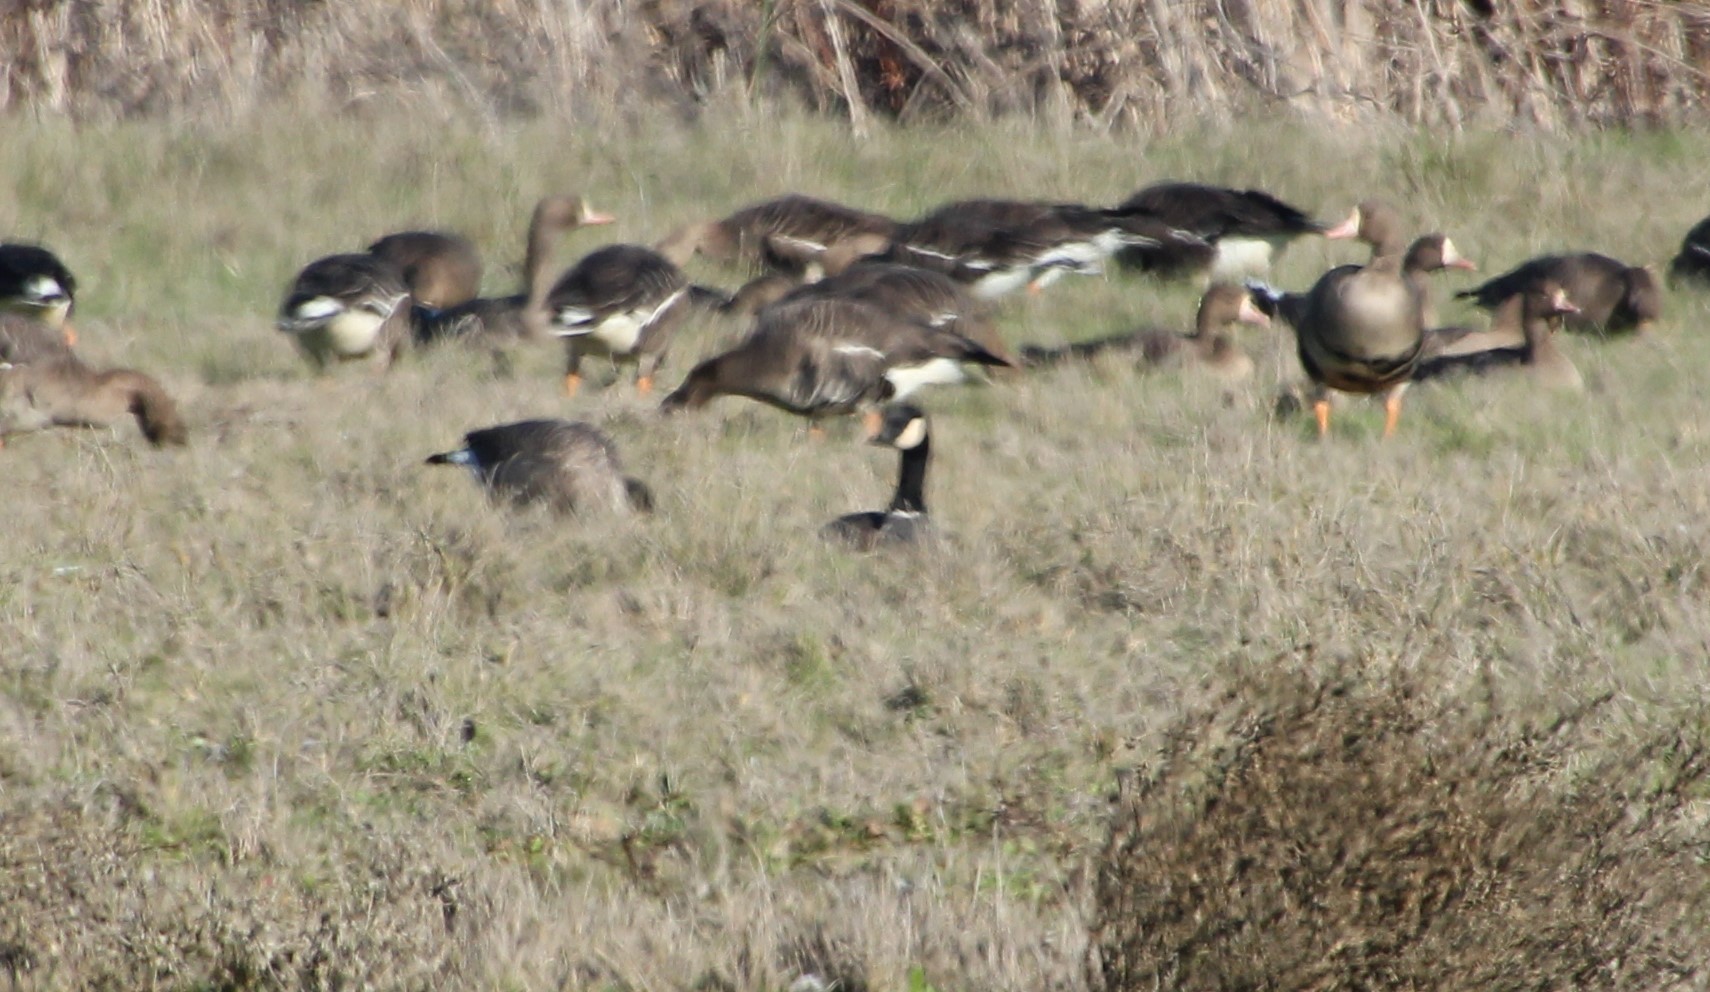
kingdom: Animalia
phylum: Chordata
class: Aves
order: Anseriformes
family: Anatidae
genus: Branta
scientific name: Branta hutchinsii
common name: Cackling goose
